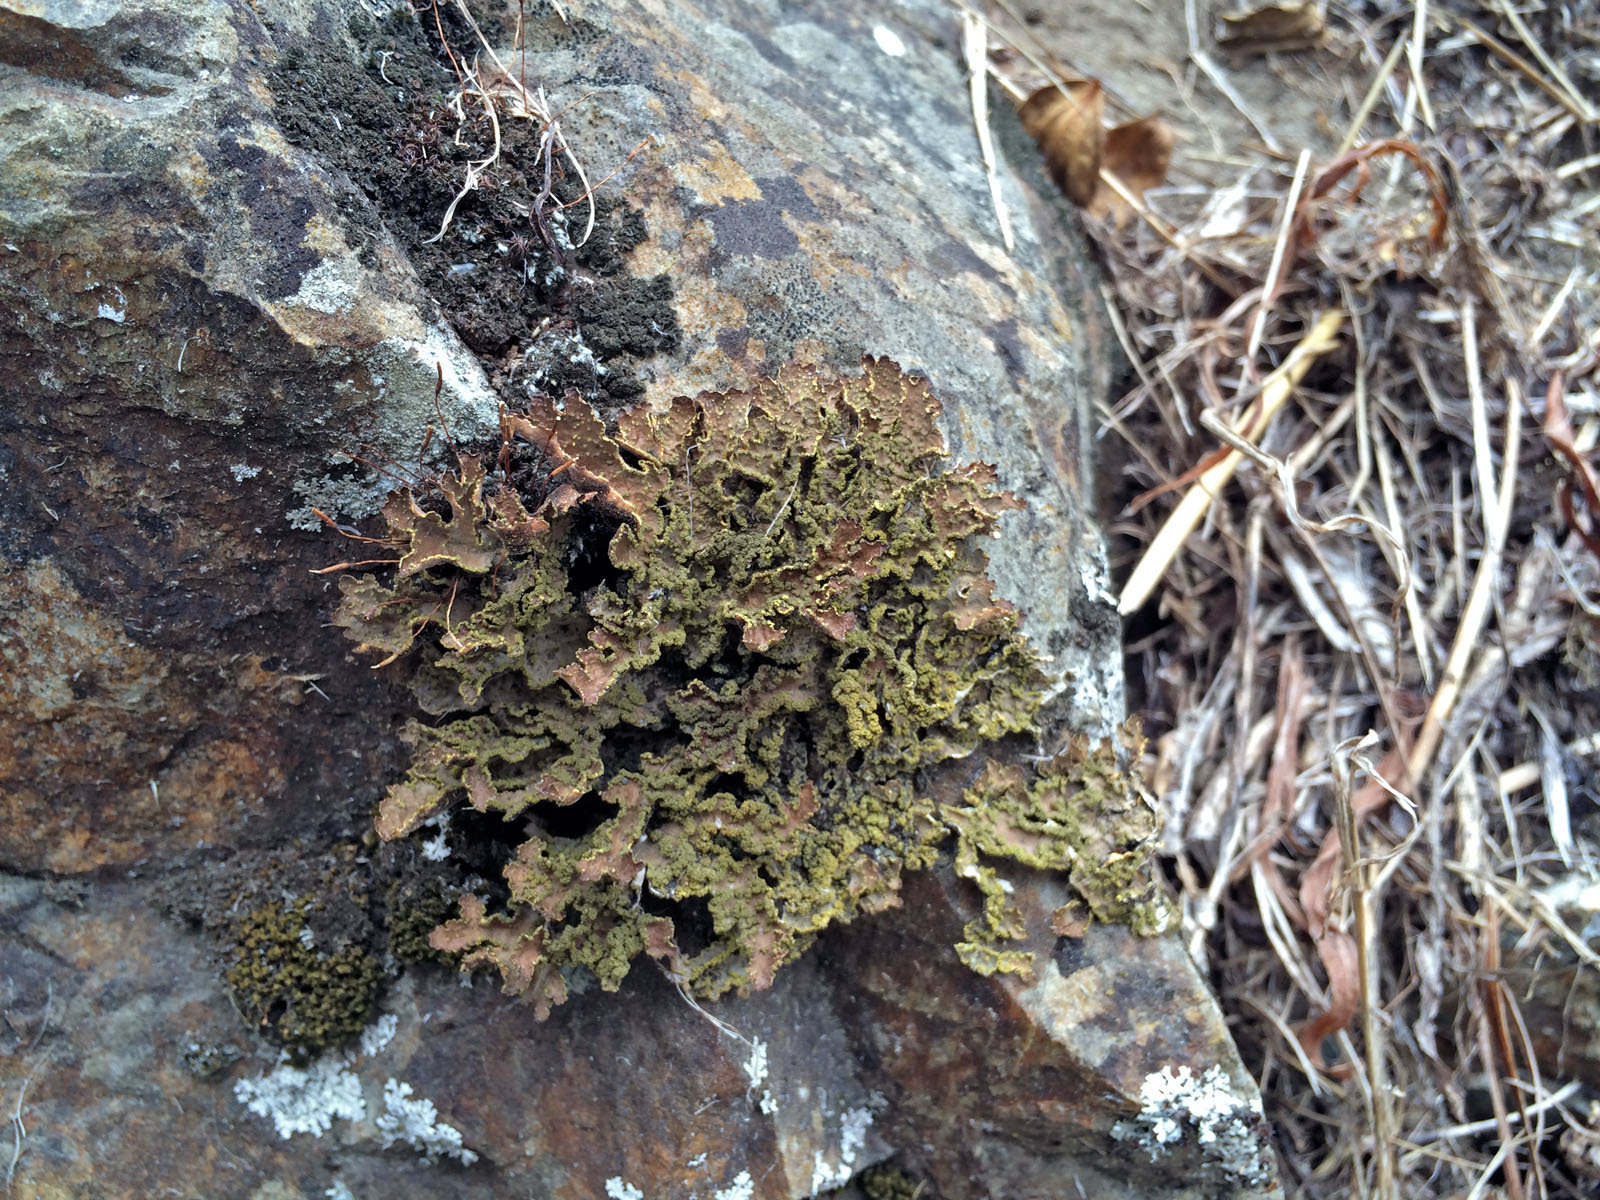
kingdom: Fungi
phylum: Ascomycota
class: Lecanoromycetes
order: Peltigerales
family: Lobariaceae
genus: Pseudocyphellaria
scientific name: Pseudocyphellaria crocata
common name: Golden specklebelly
